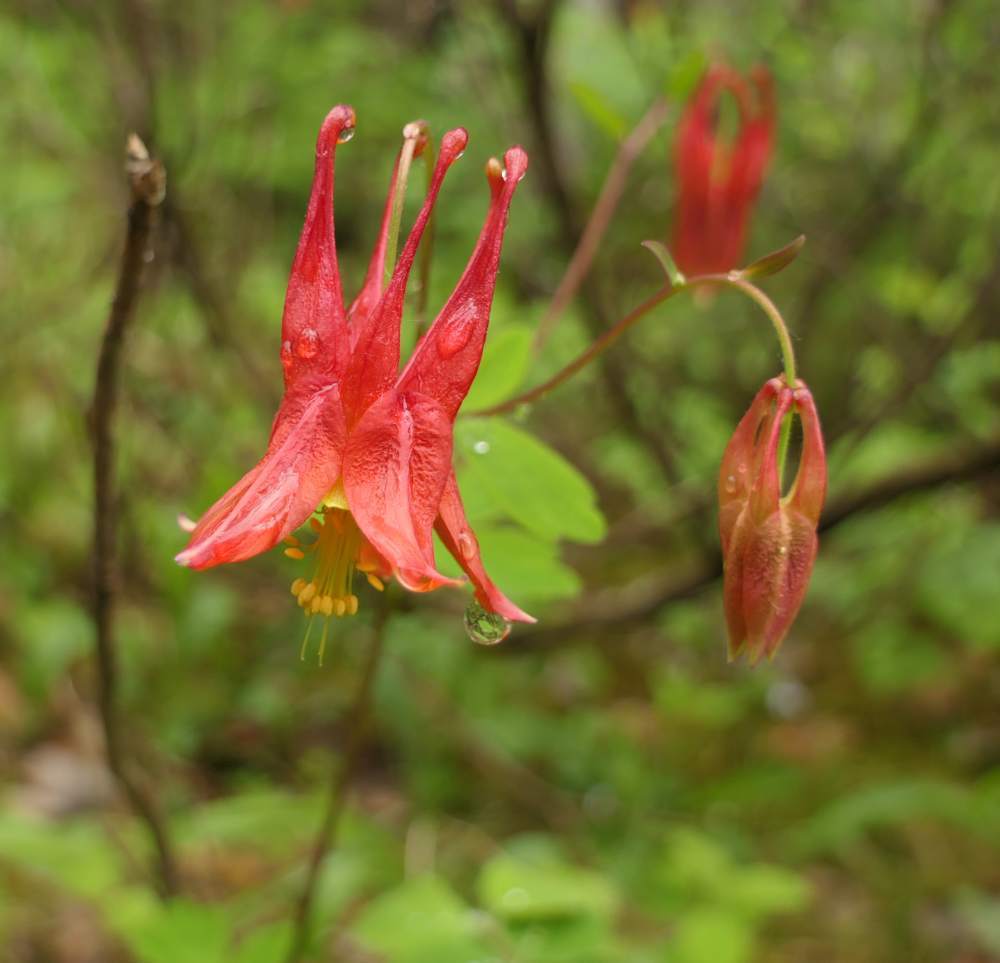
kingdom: Plantae
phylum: Tracheophyta
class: Magnoliopsida
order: Ranunculales
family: Ranunculaceae
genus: Aquilegia
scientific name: Aquilegia canadensis
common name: American columbine
